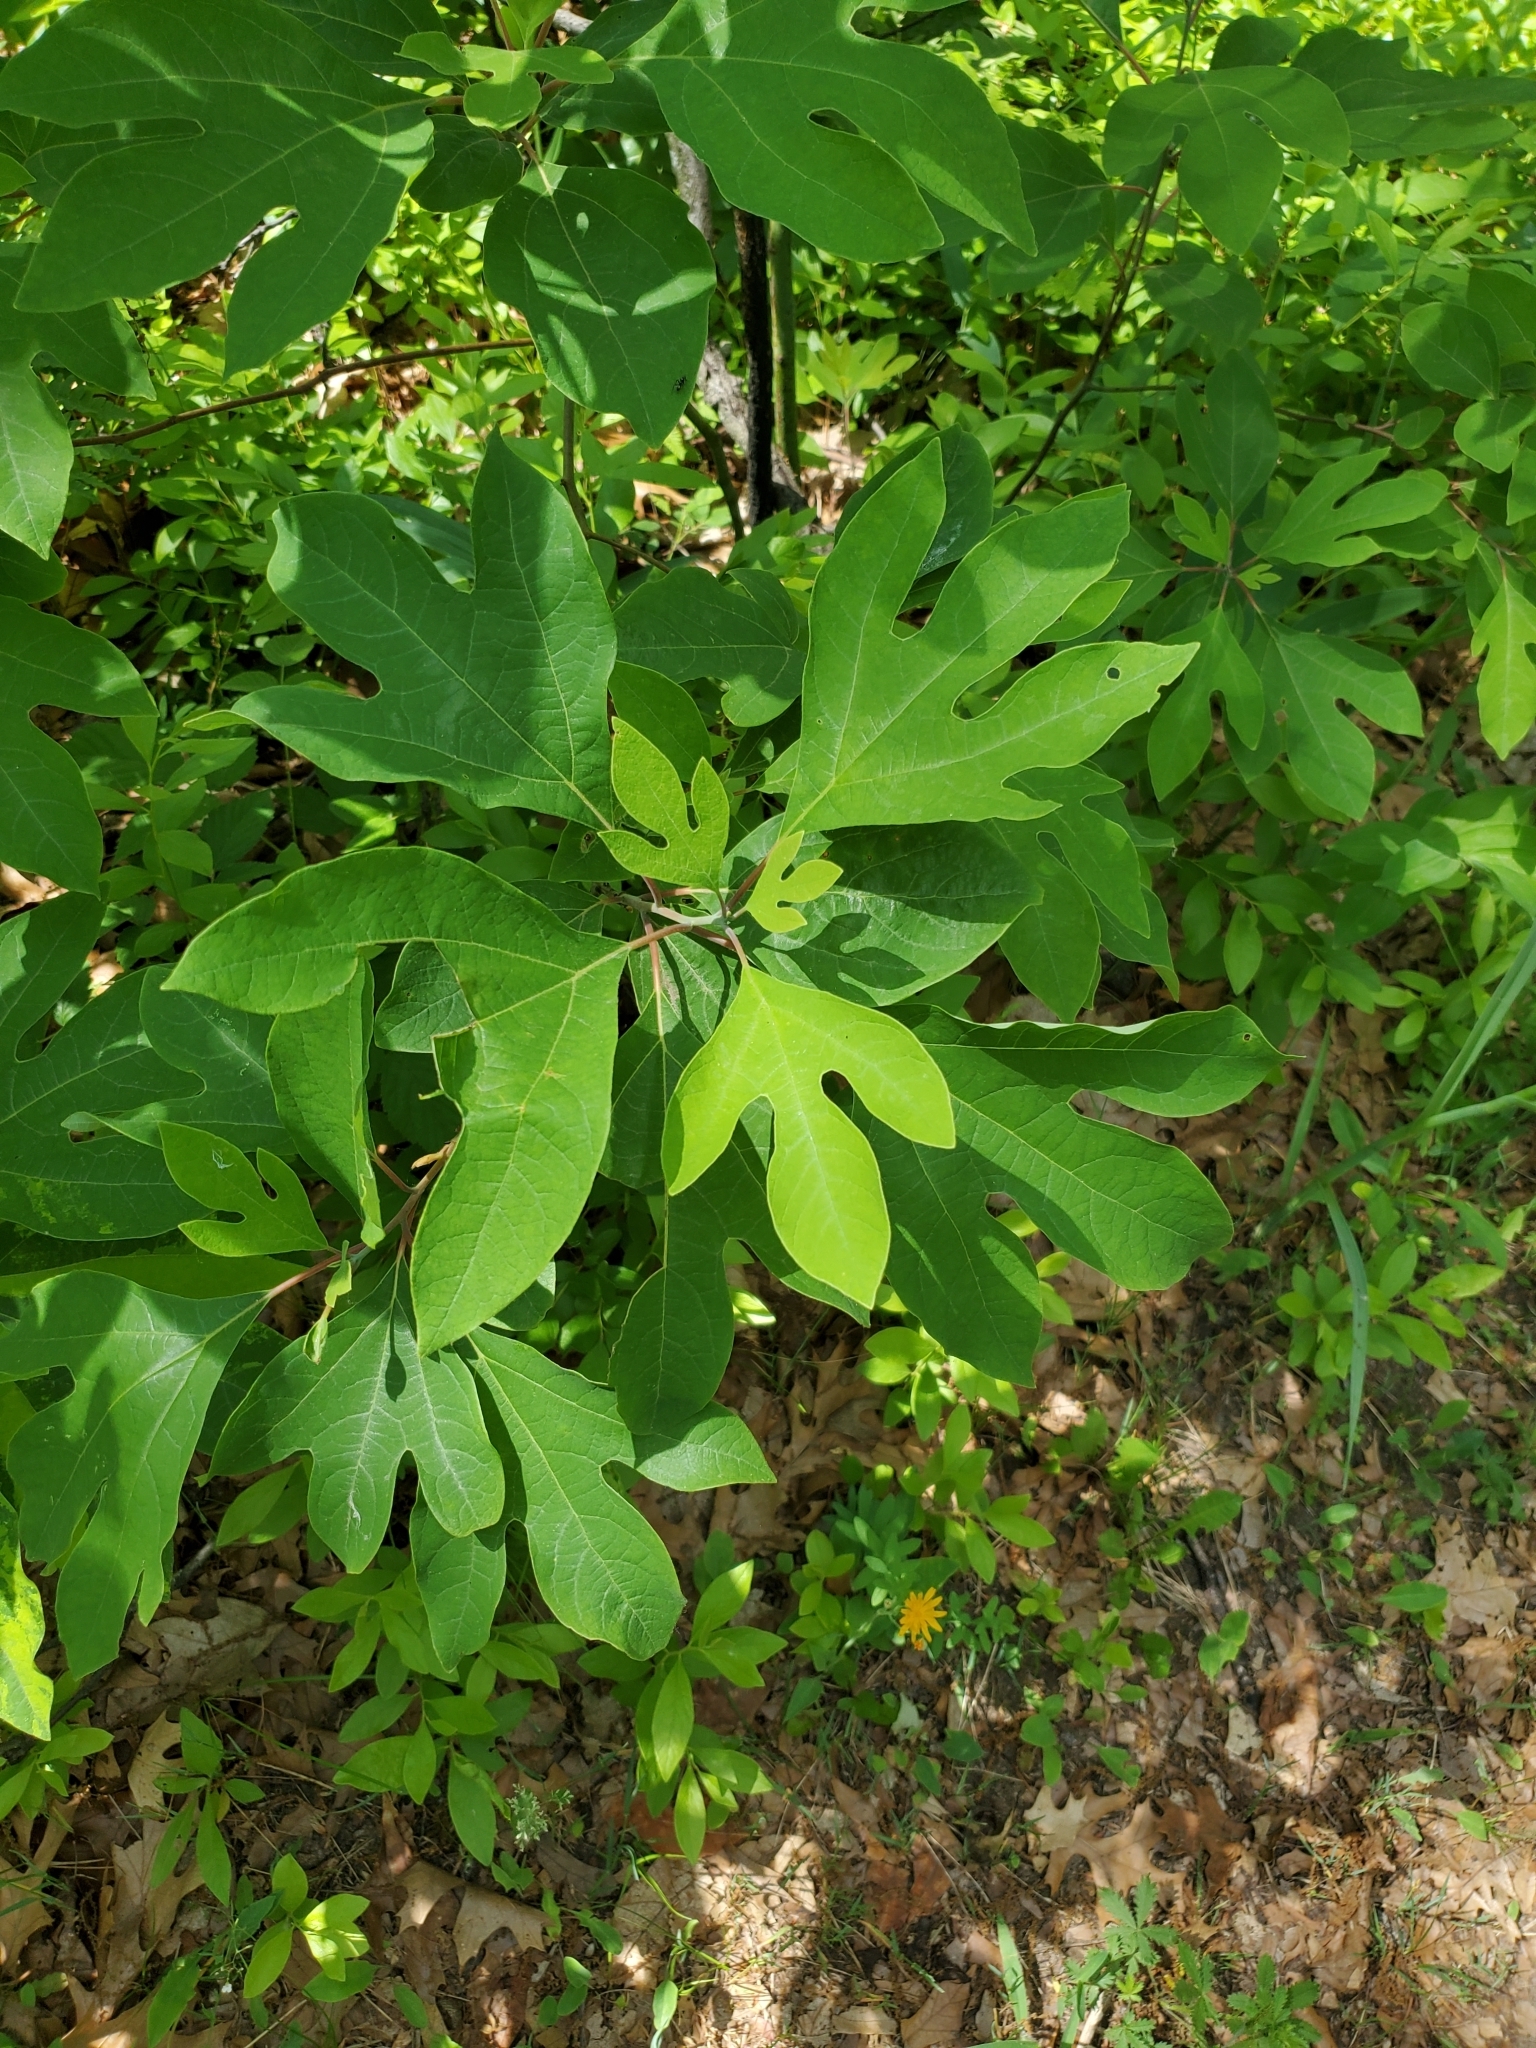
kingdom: Plantae
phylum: Tracheophyta
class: Magnoliopsida
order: Laurales
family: Lauraceae
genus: Sassafras
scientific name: Sassafras albidum
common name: Sassafras
